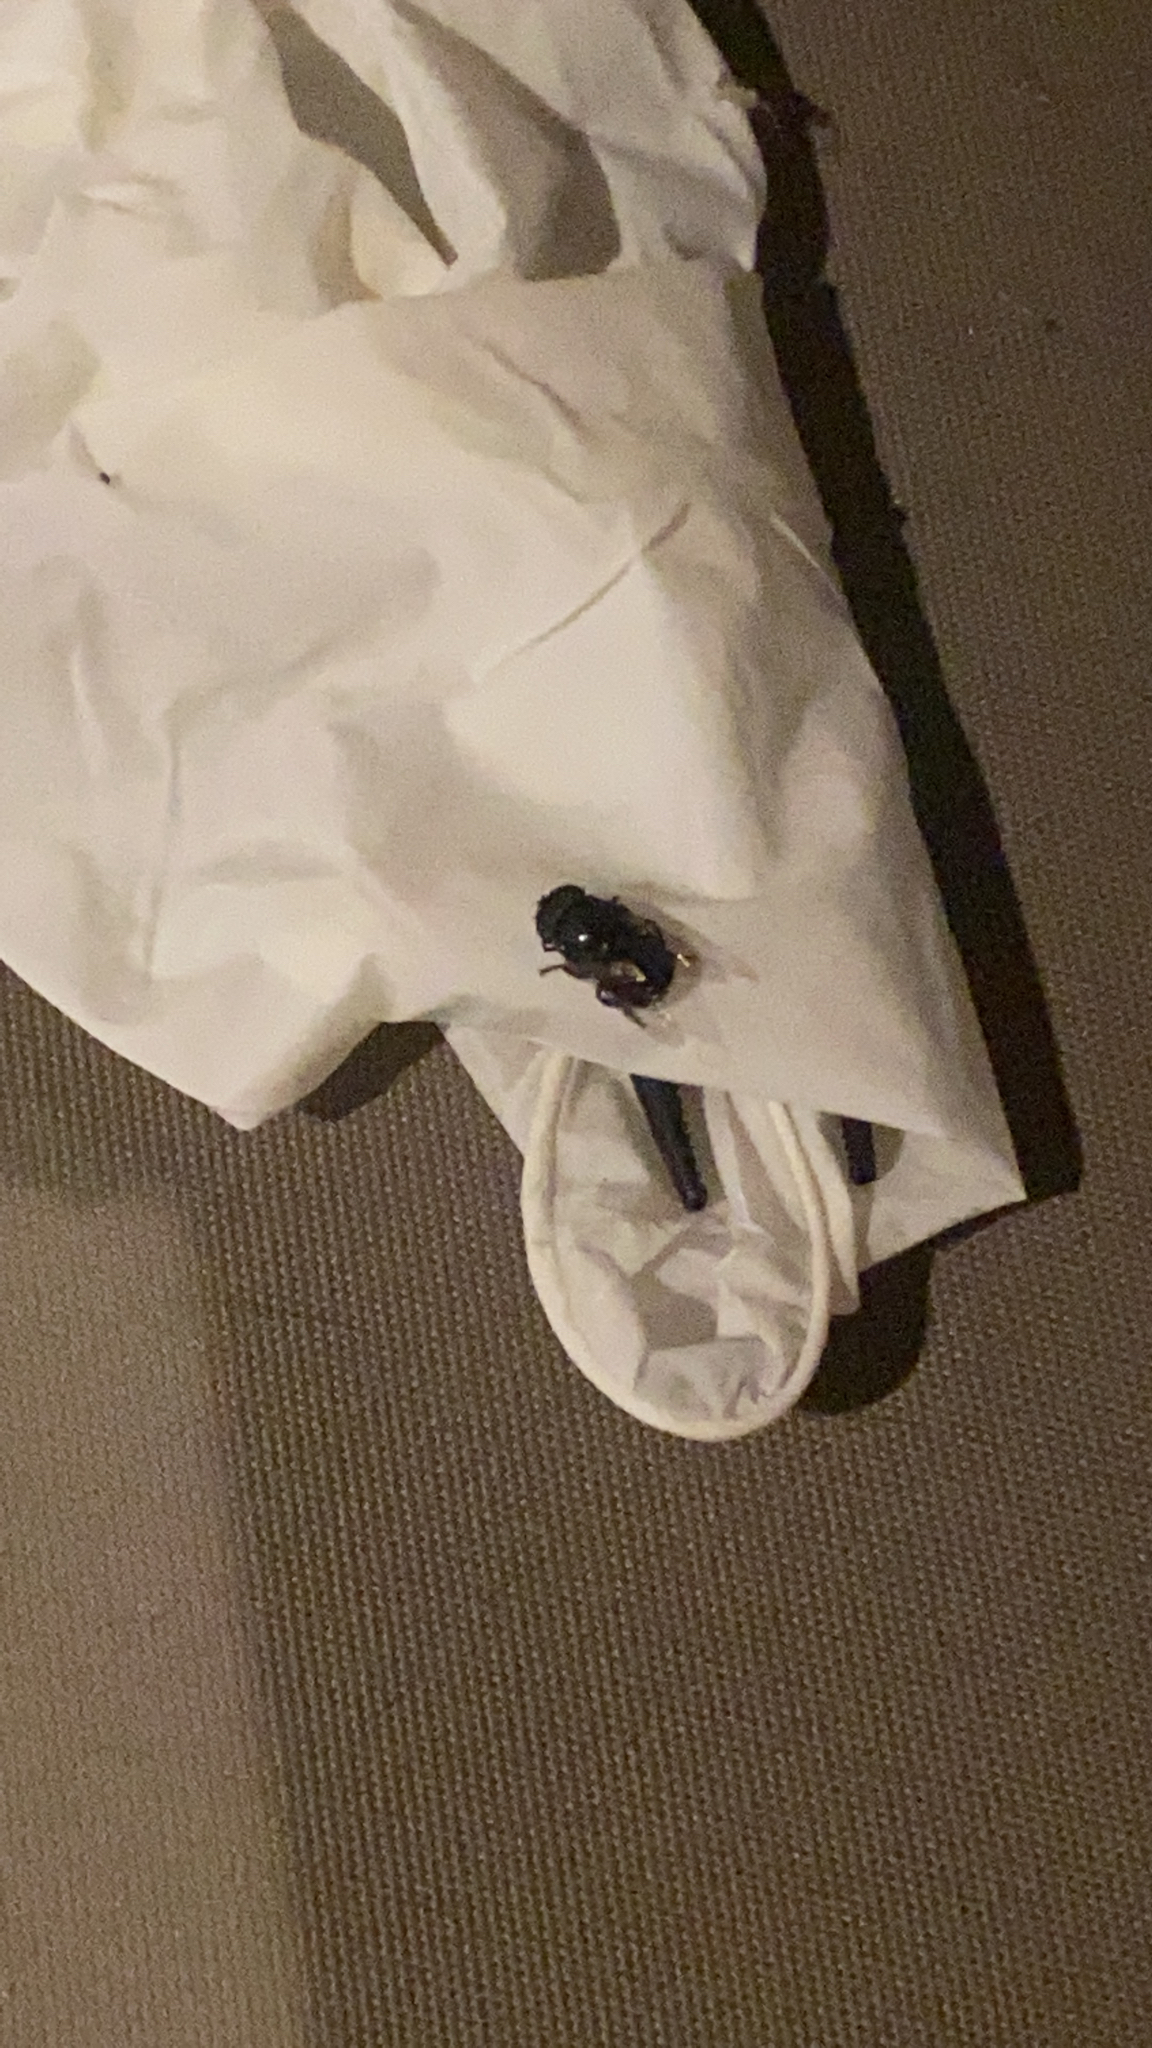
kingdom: Animalia
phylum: Arthropoda
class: Insecta
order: Diptera
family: Syrphidae
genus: Ornidia
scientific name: Ornidia obesa
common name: Syrphid fly
